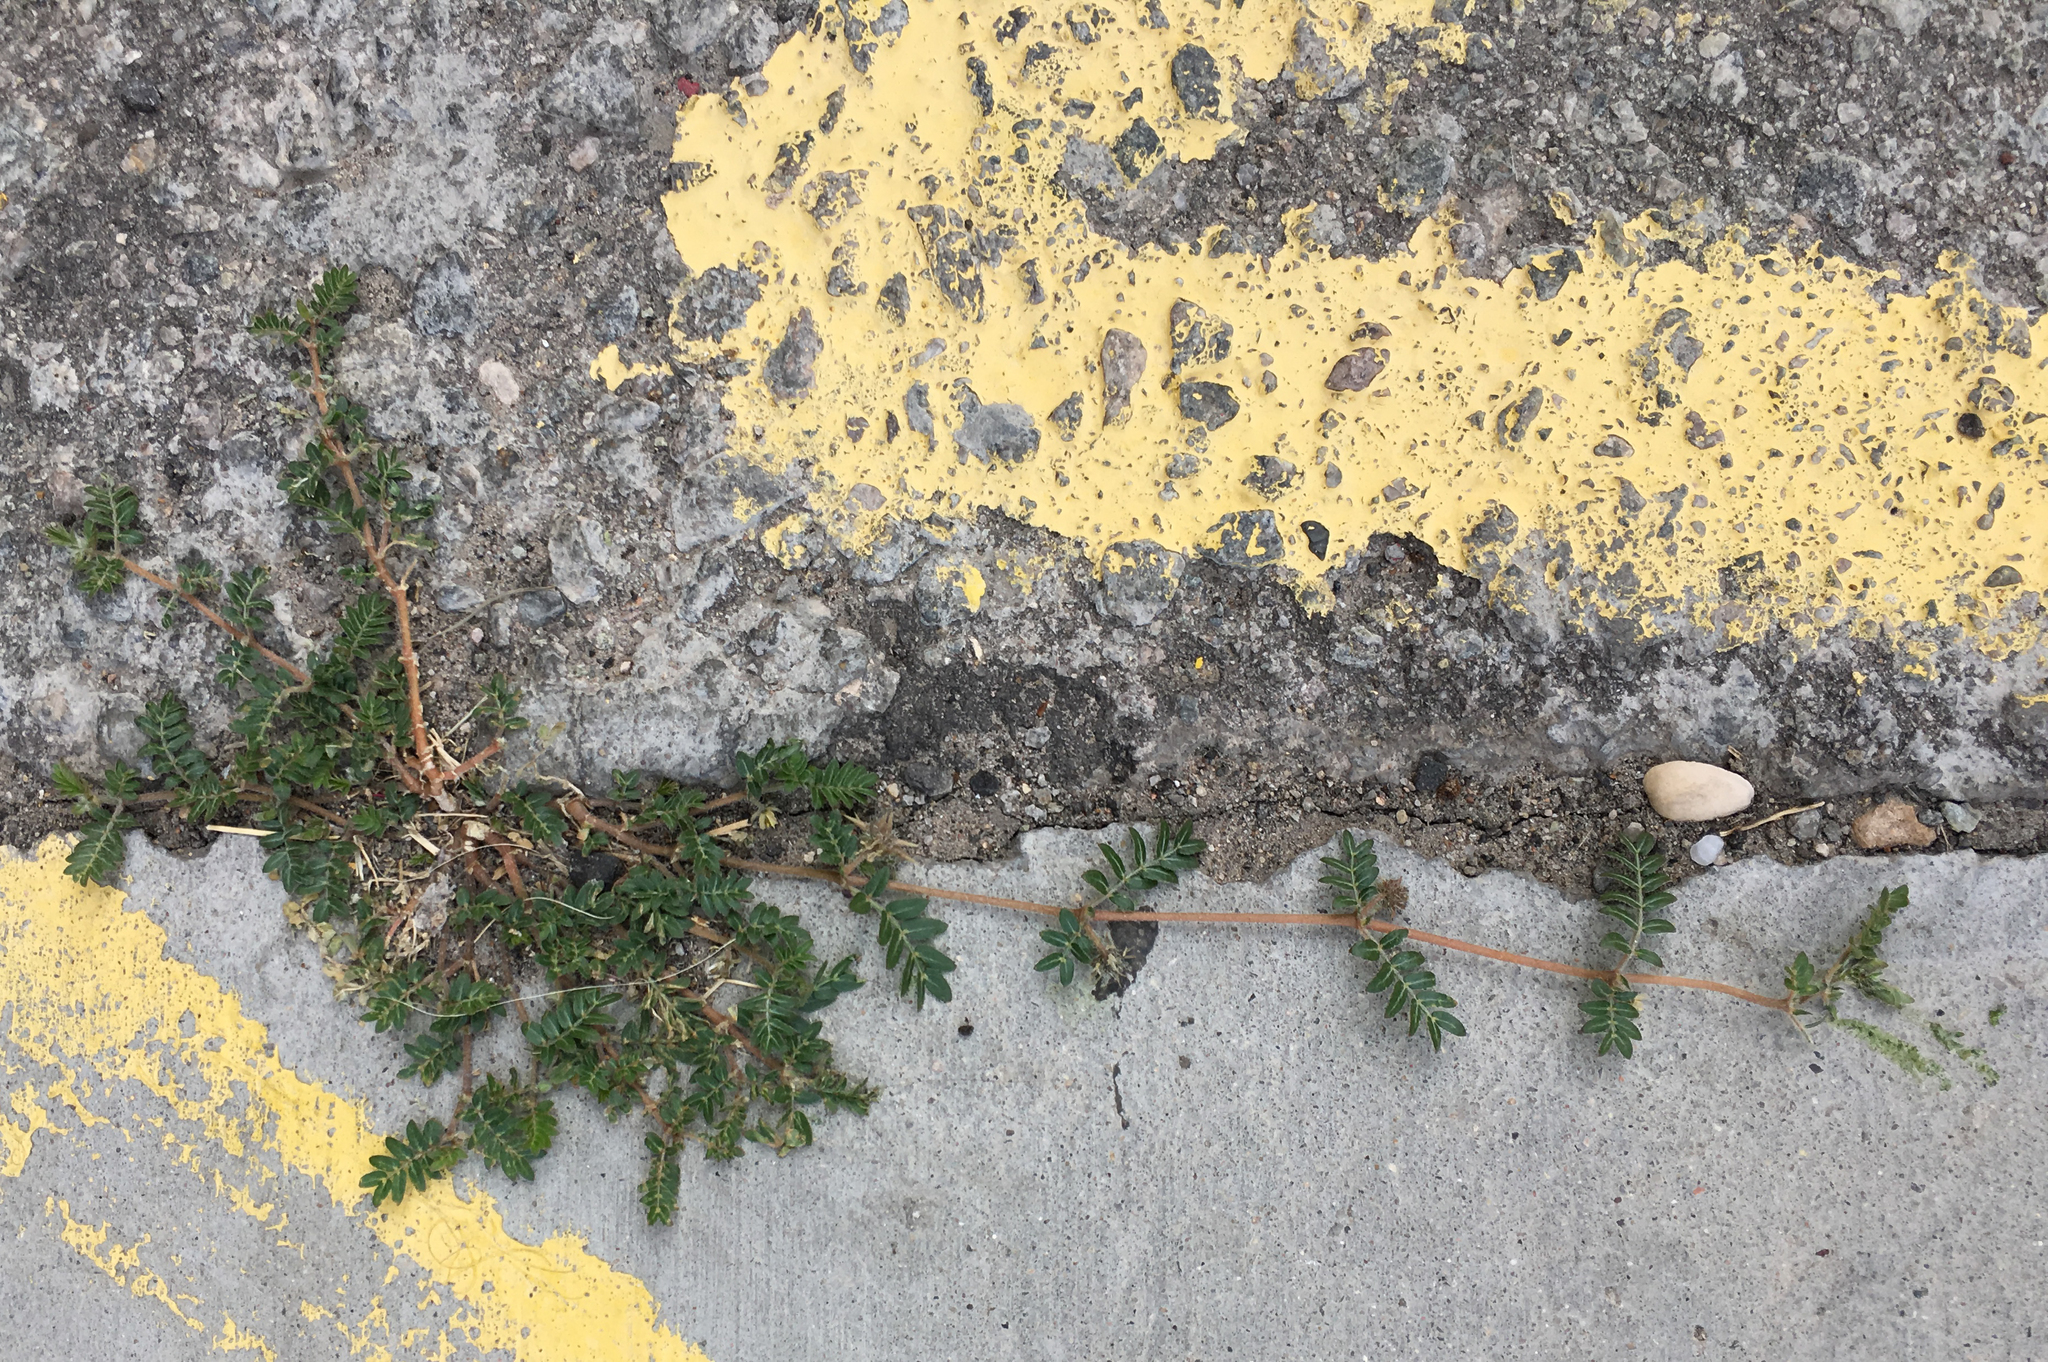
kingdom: Plantae
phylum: Tracheophyta
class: Magnoliopsida
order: Zygophyllales
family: Zygophyllaceae
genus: Tribulus
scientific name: Tribulus terrestris
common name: Puncturevine
